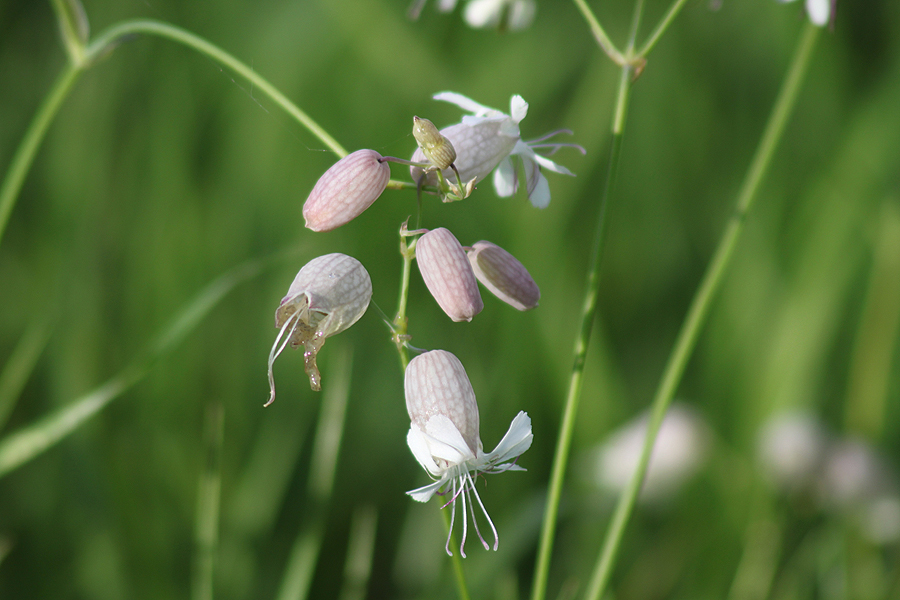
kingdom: Plantae
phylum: Tracheophyta
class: Magnoliopsida
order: Caryophyllales
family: Caryophyllaceae
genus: Silene
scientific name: Silene vulgaris
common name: Bladder campion
